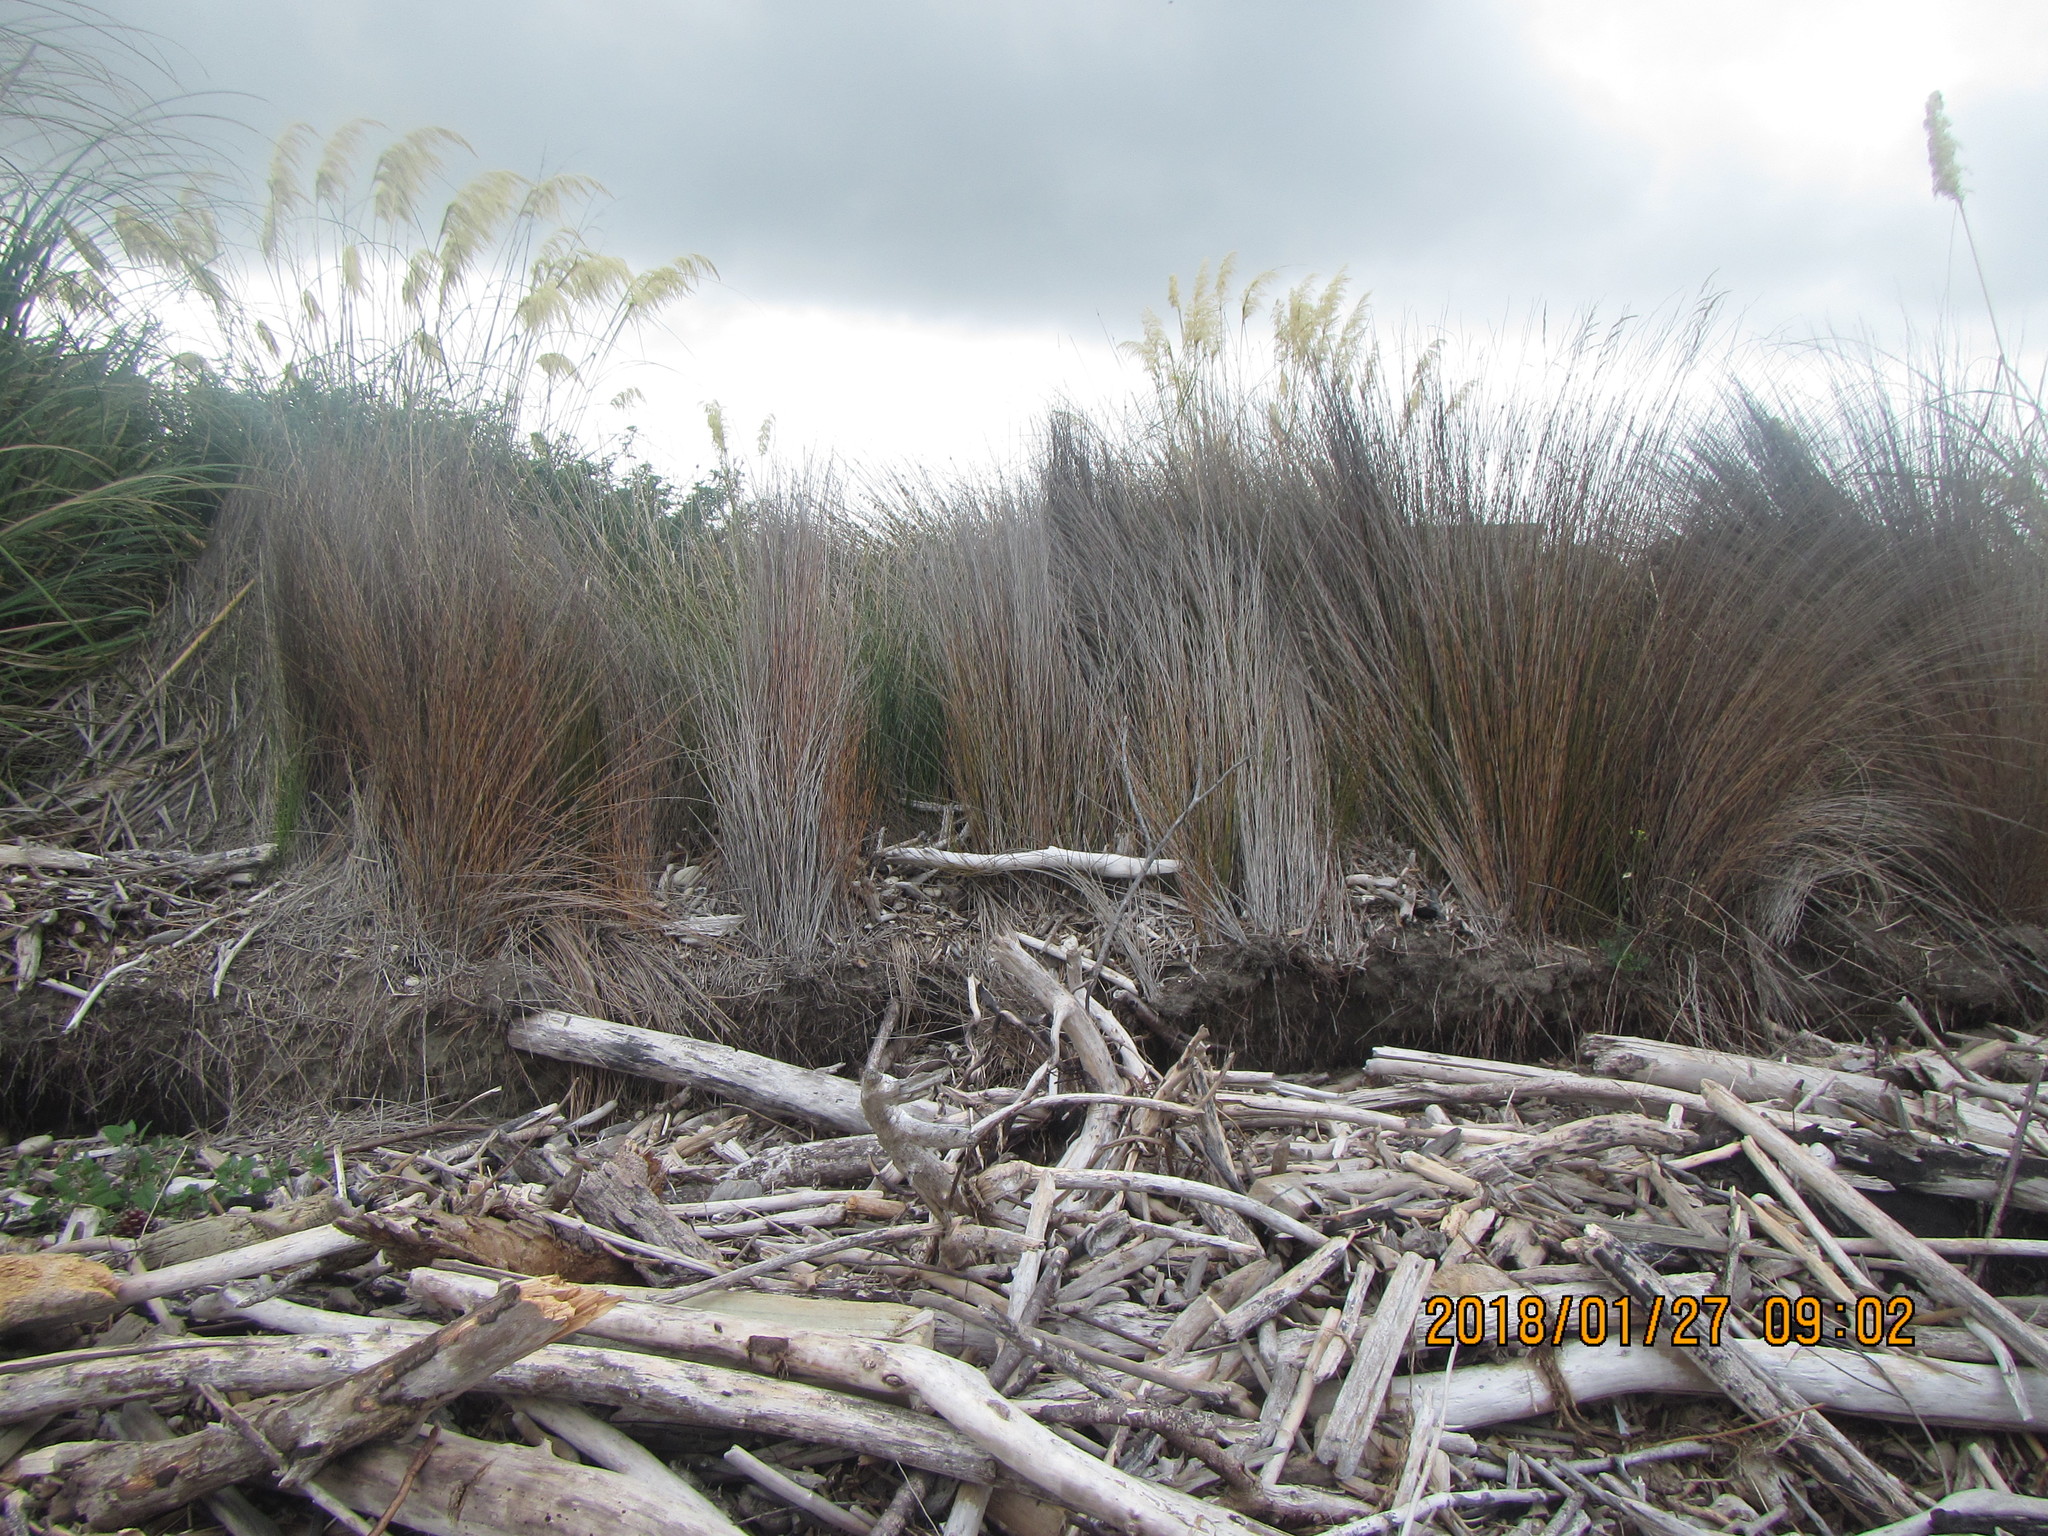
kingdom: Plantae
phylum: Tracheophyta
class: Liliopsida
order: Poales
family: Restionaceae
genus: Apodasmia
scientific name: Apodasmia similis
